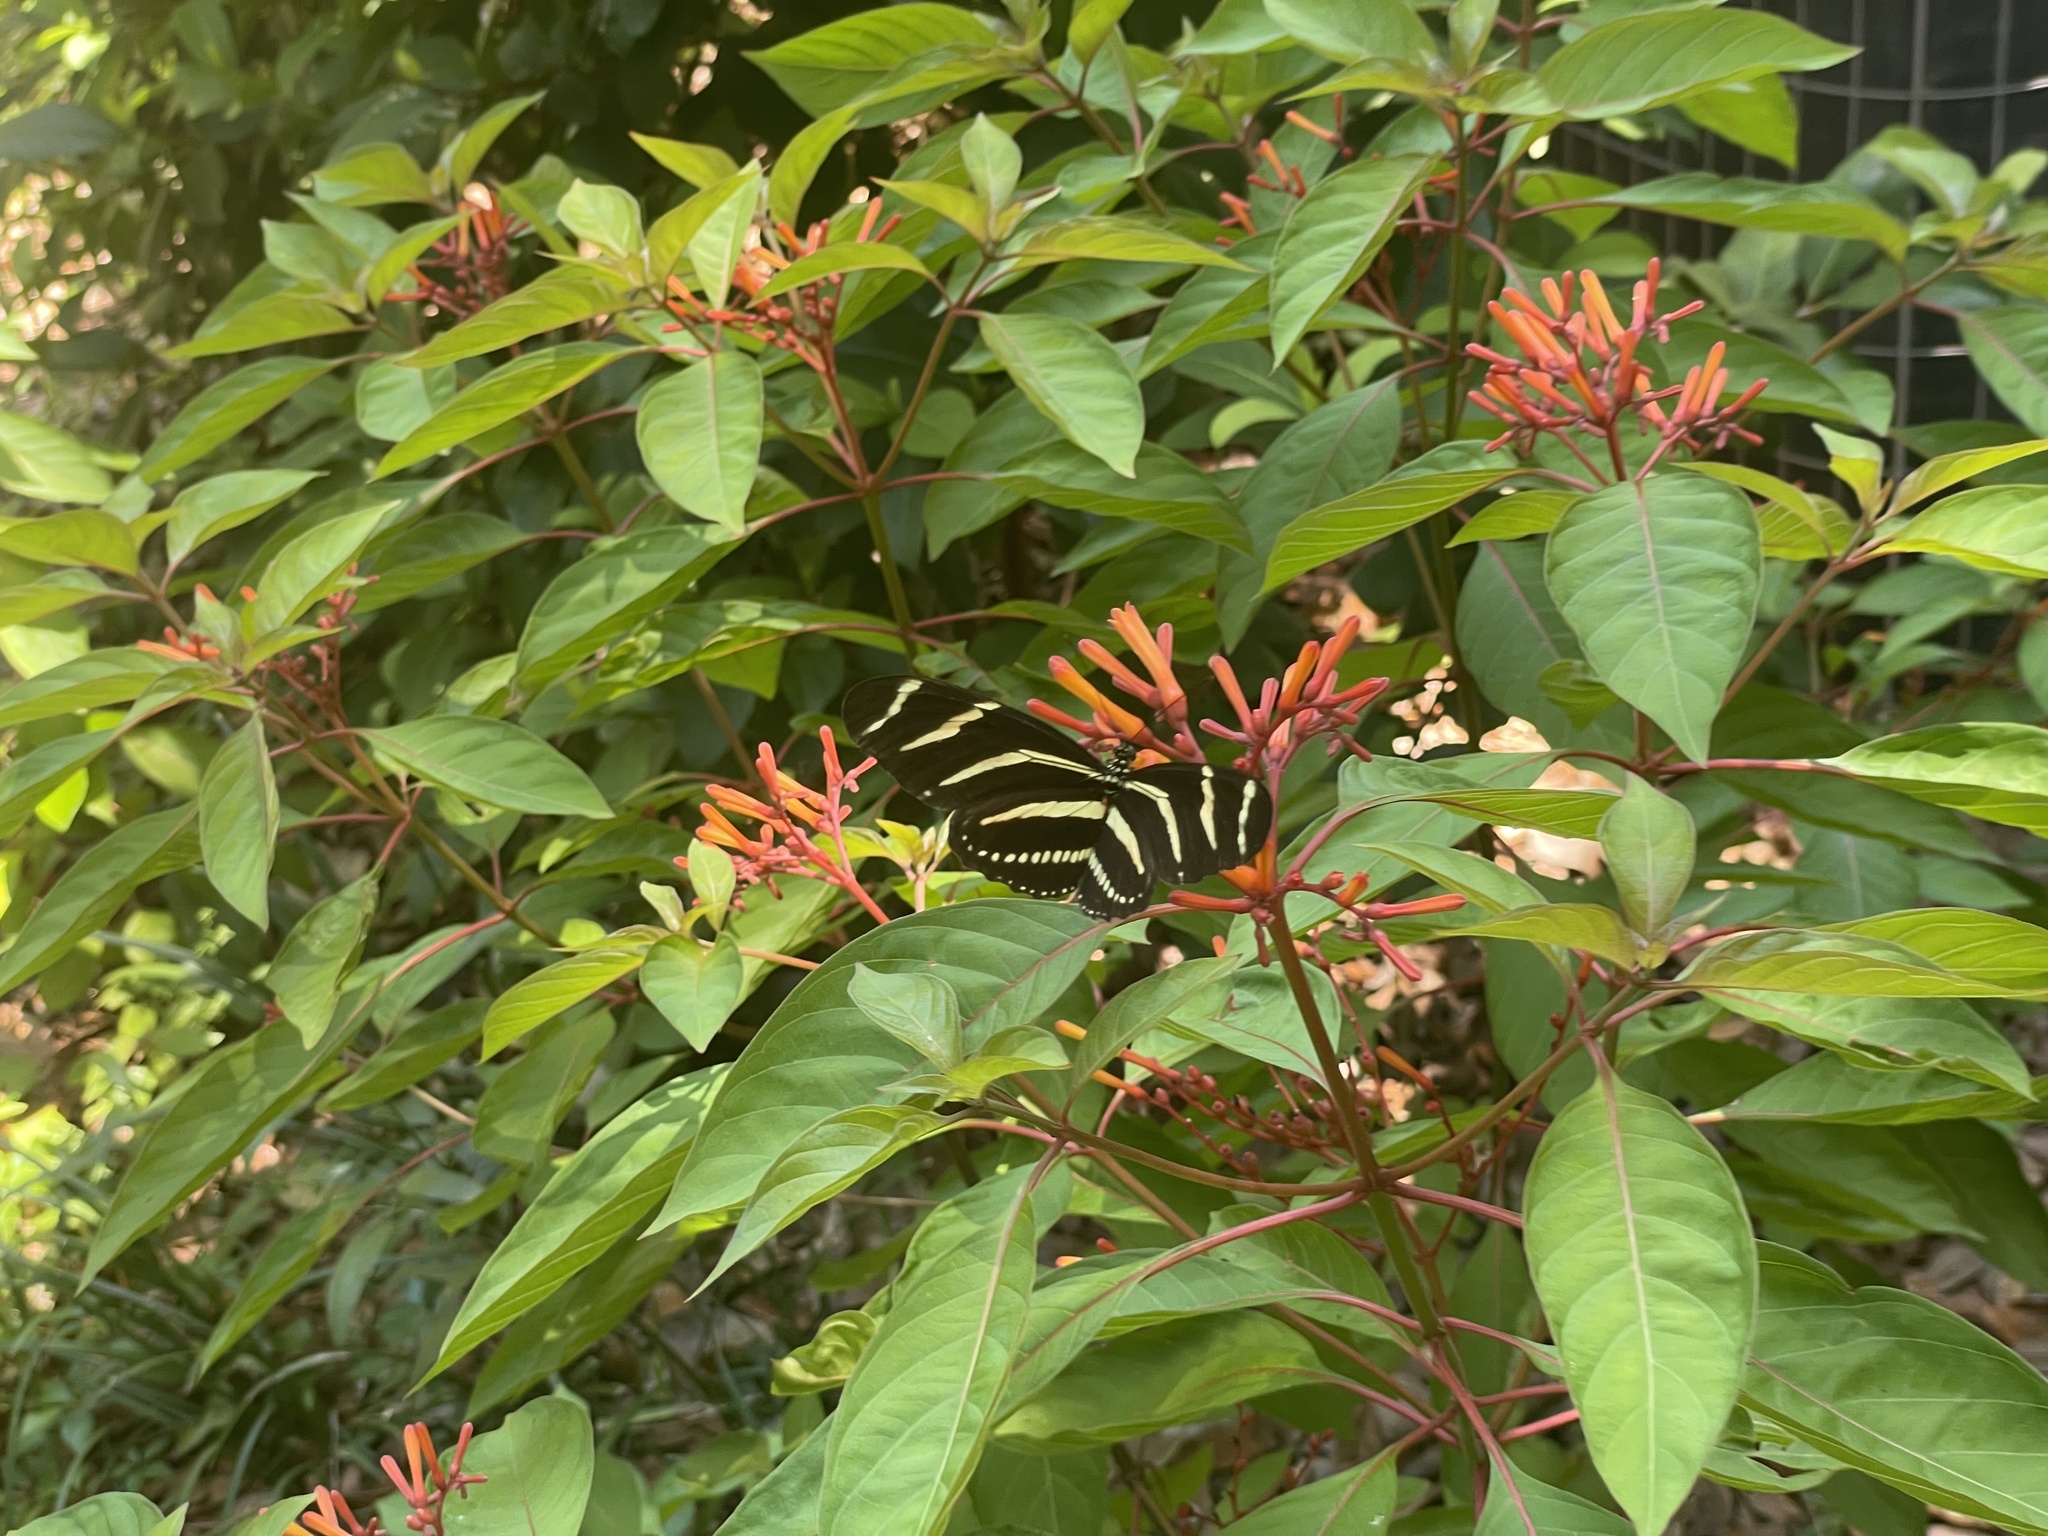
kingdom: Animalia
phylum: Arthropoda
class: Insecta
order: Lepidoptera
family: Nymphalidae
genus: Heliconius
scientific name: Heliconius charithonia
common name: Zebra long wing
